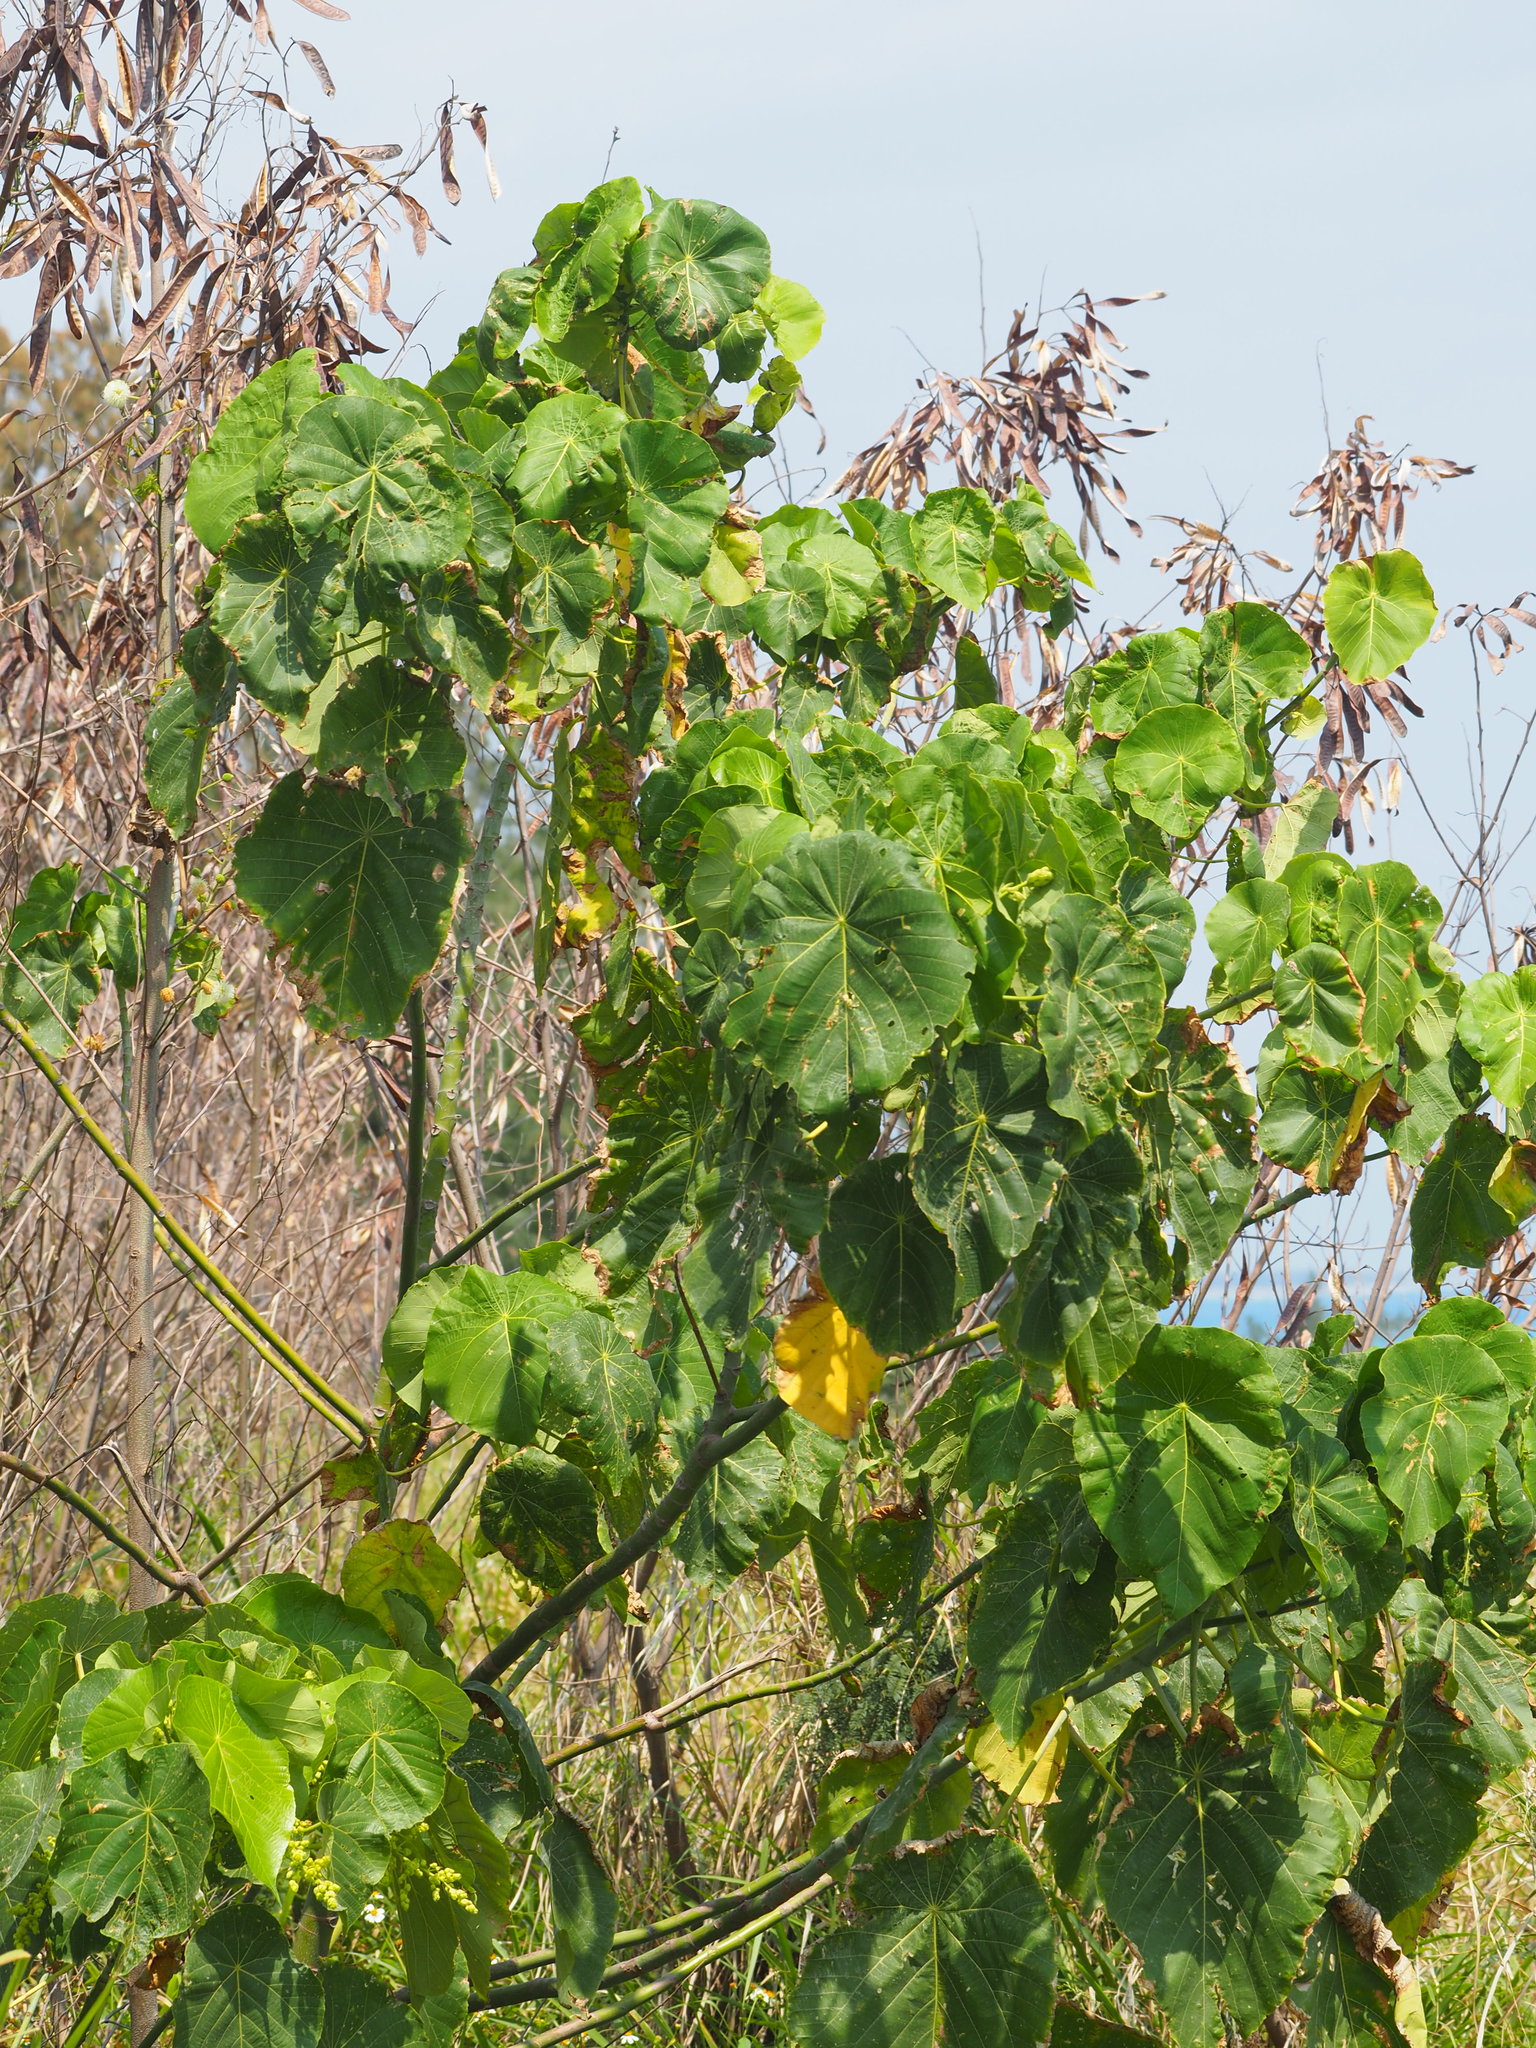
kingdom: Plantae
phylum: Tracheophyta
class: Magnoliopsida
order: Malpighiales
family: Euphorbiaceae
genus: Macaranga
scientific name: Macaranga tanarius
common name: Parasol leaf tree
